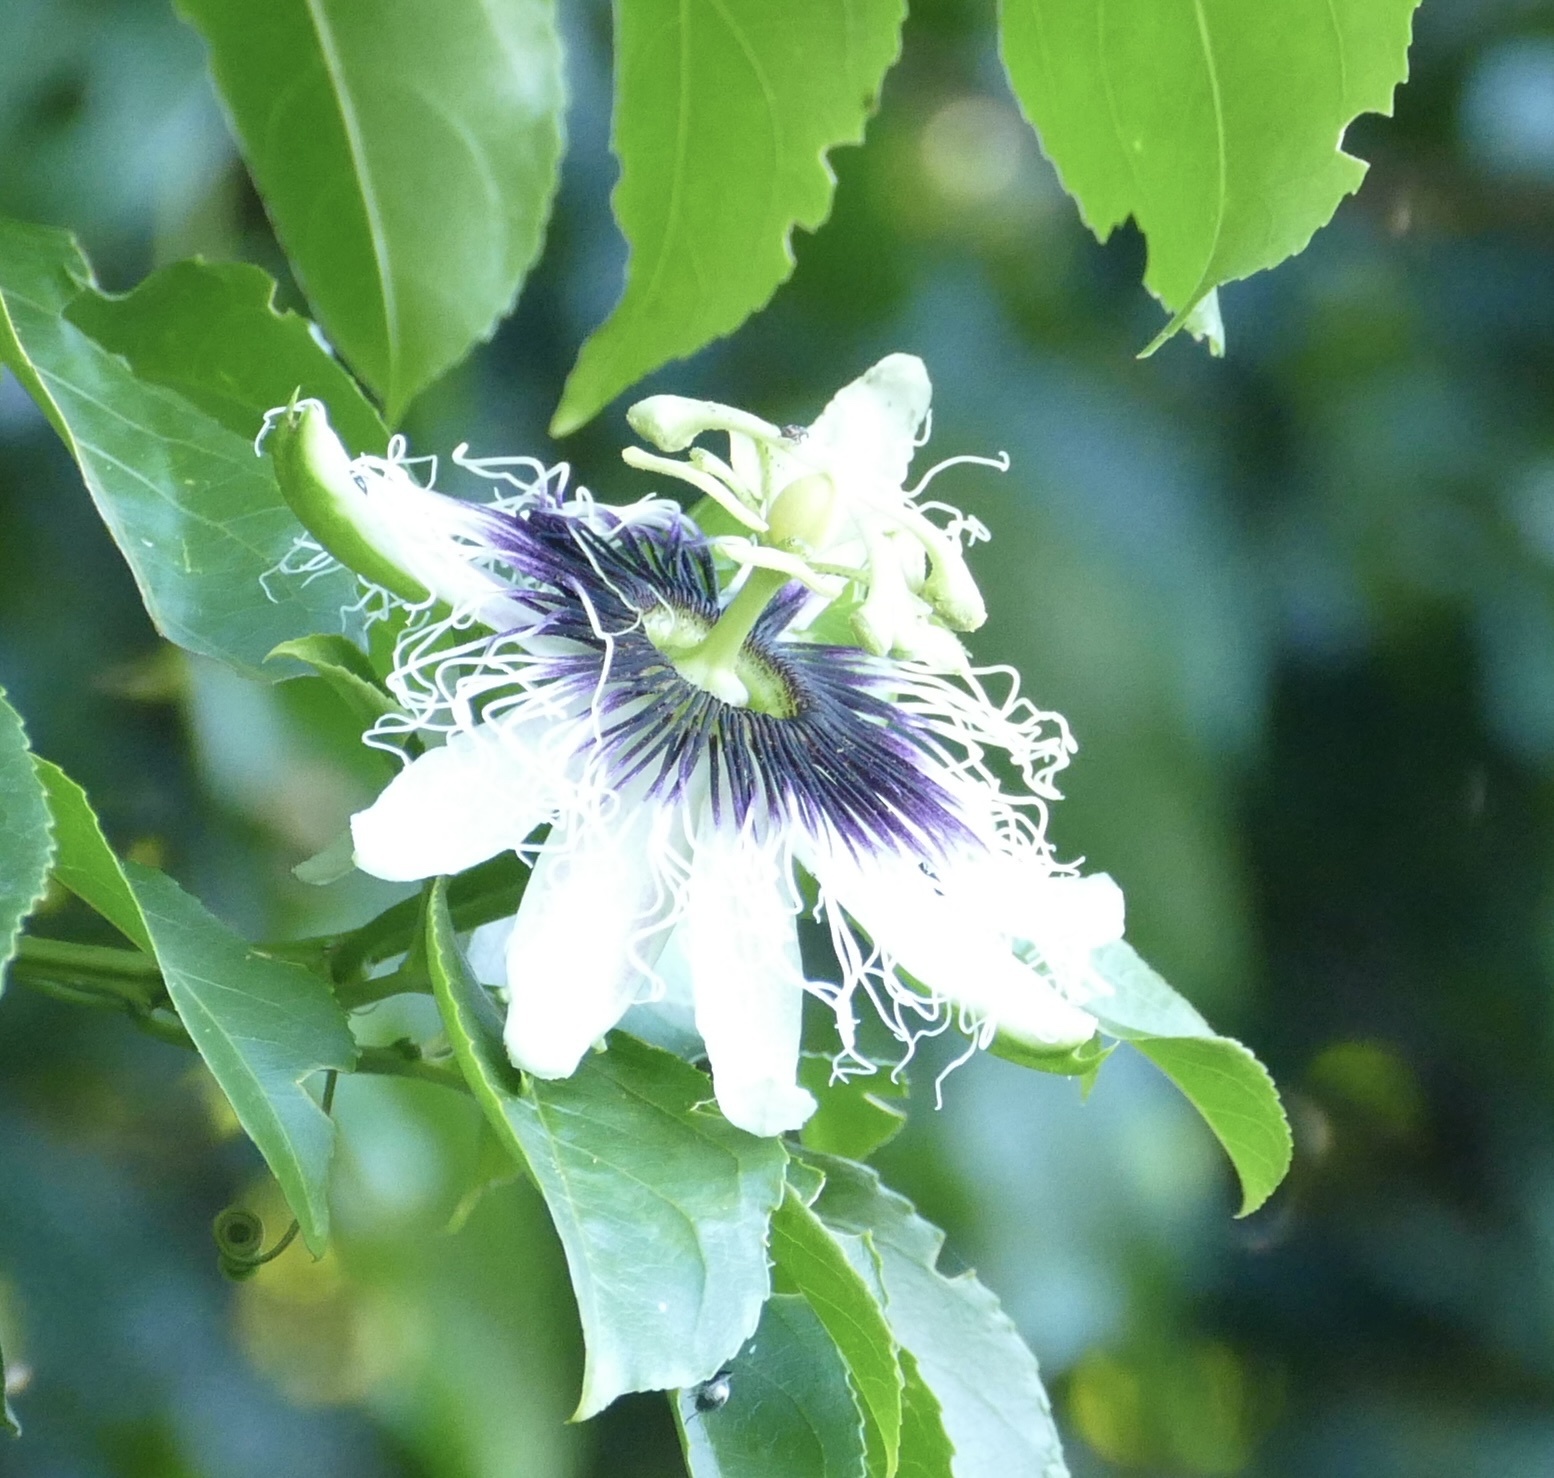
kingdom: Plantae
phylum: Tracheophyta
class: Magnoliopsida
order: Malpighiales
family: Passifloraceae
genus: Passiflora
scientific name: Passiflora edulis
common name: Purple granadilla
